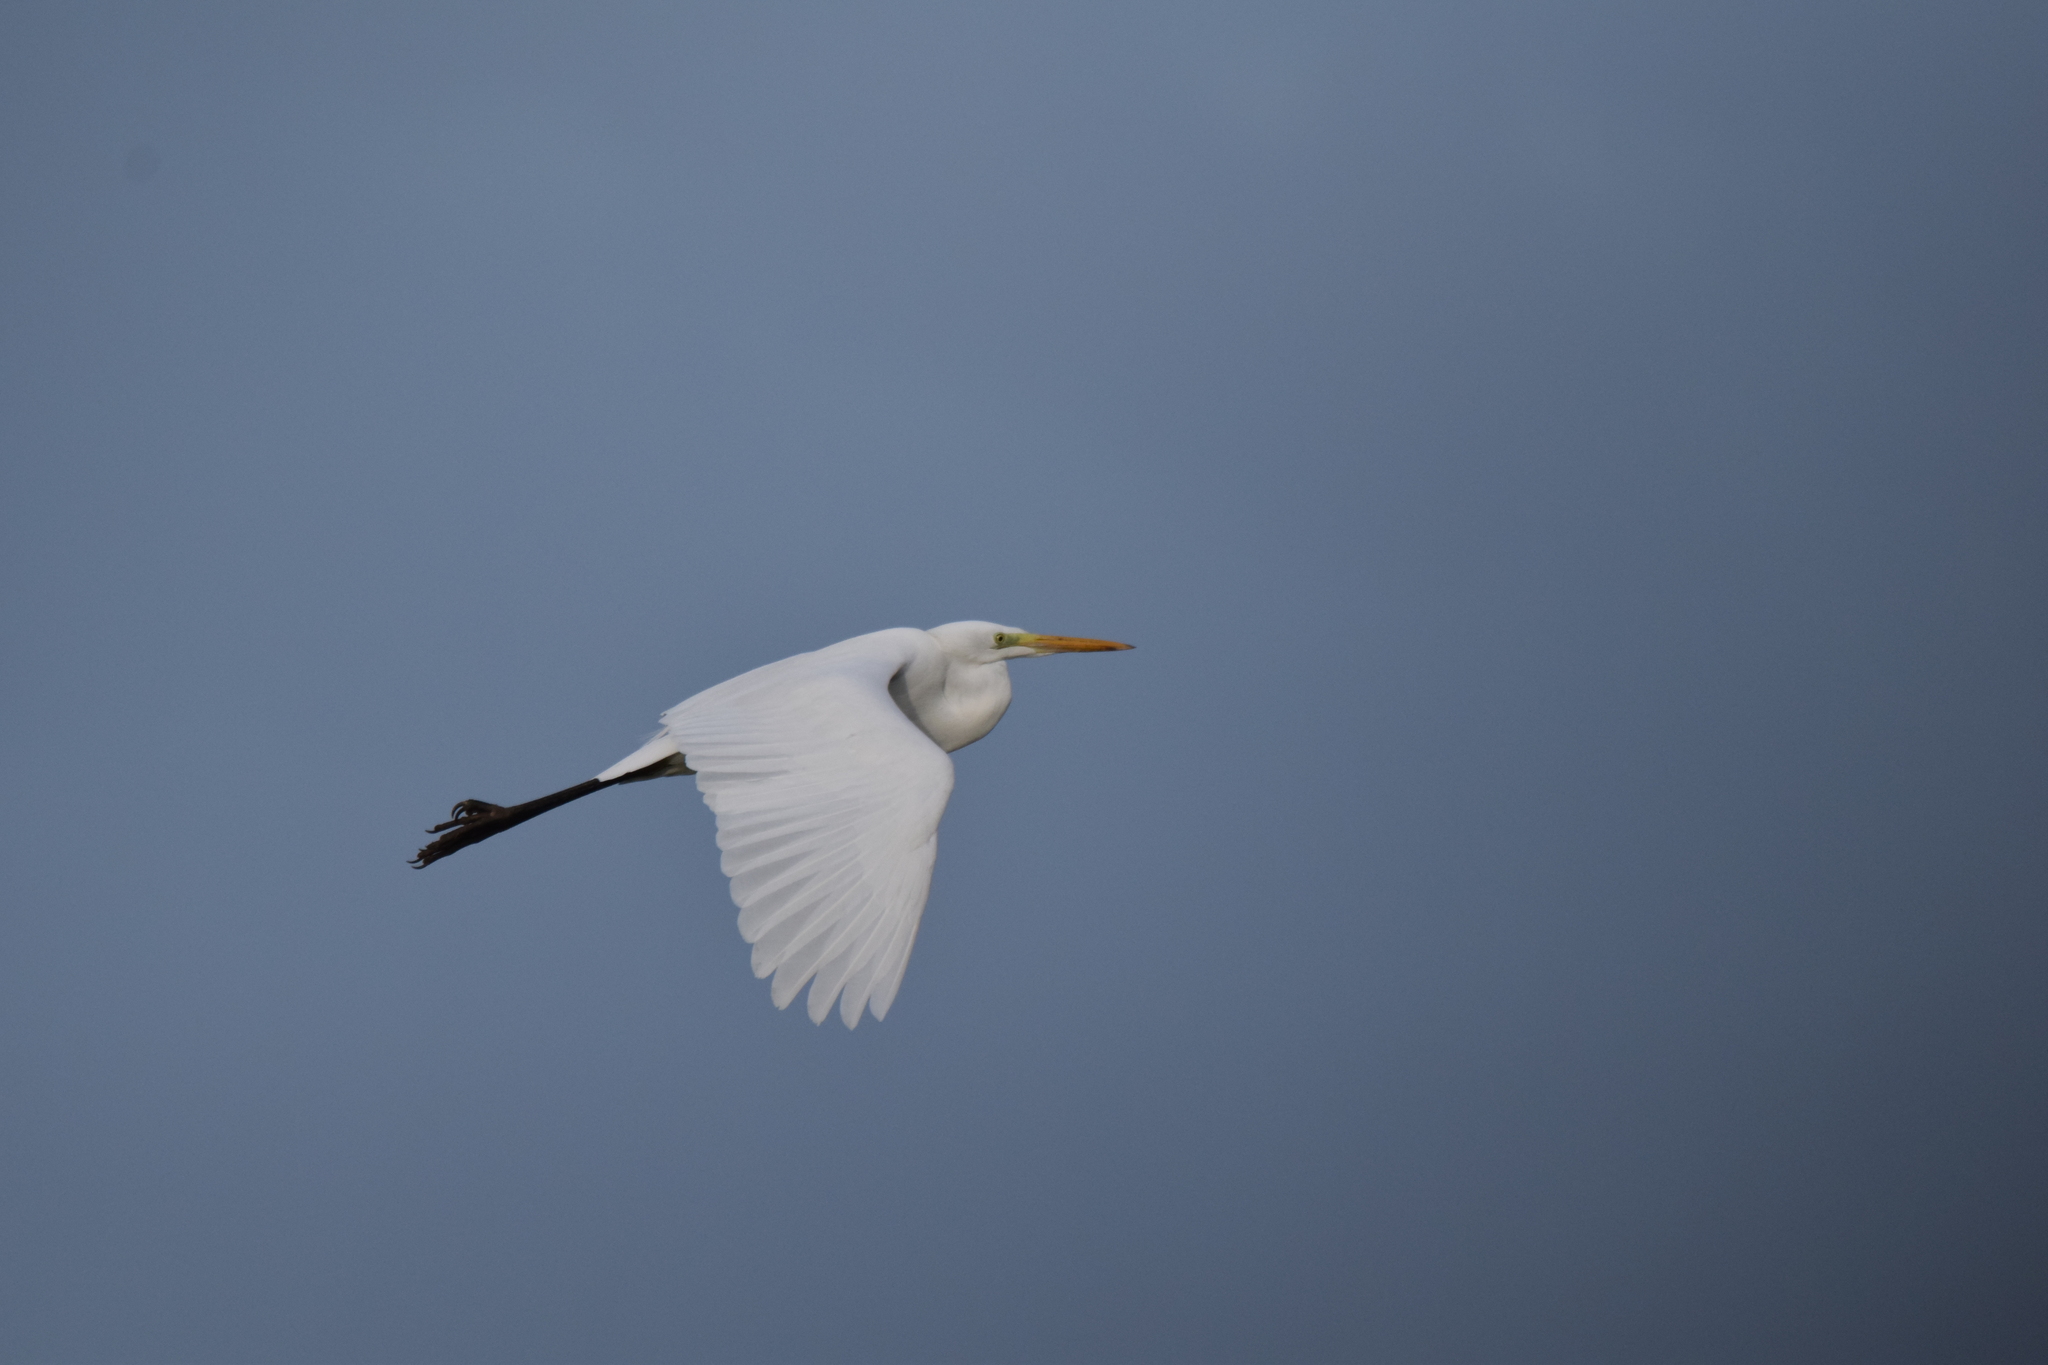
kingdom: Animalia
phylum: Chordata
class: Aves
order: Pelecaniformes
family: Ardeidae
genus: Ardea
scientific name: Ardea alba
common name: Great egret
